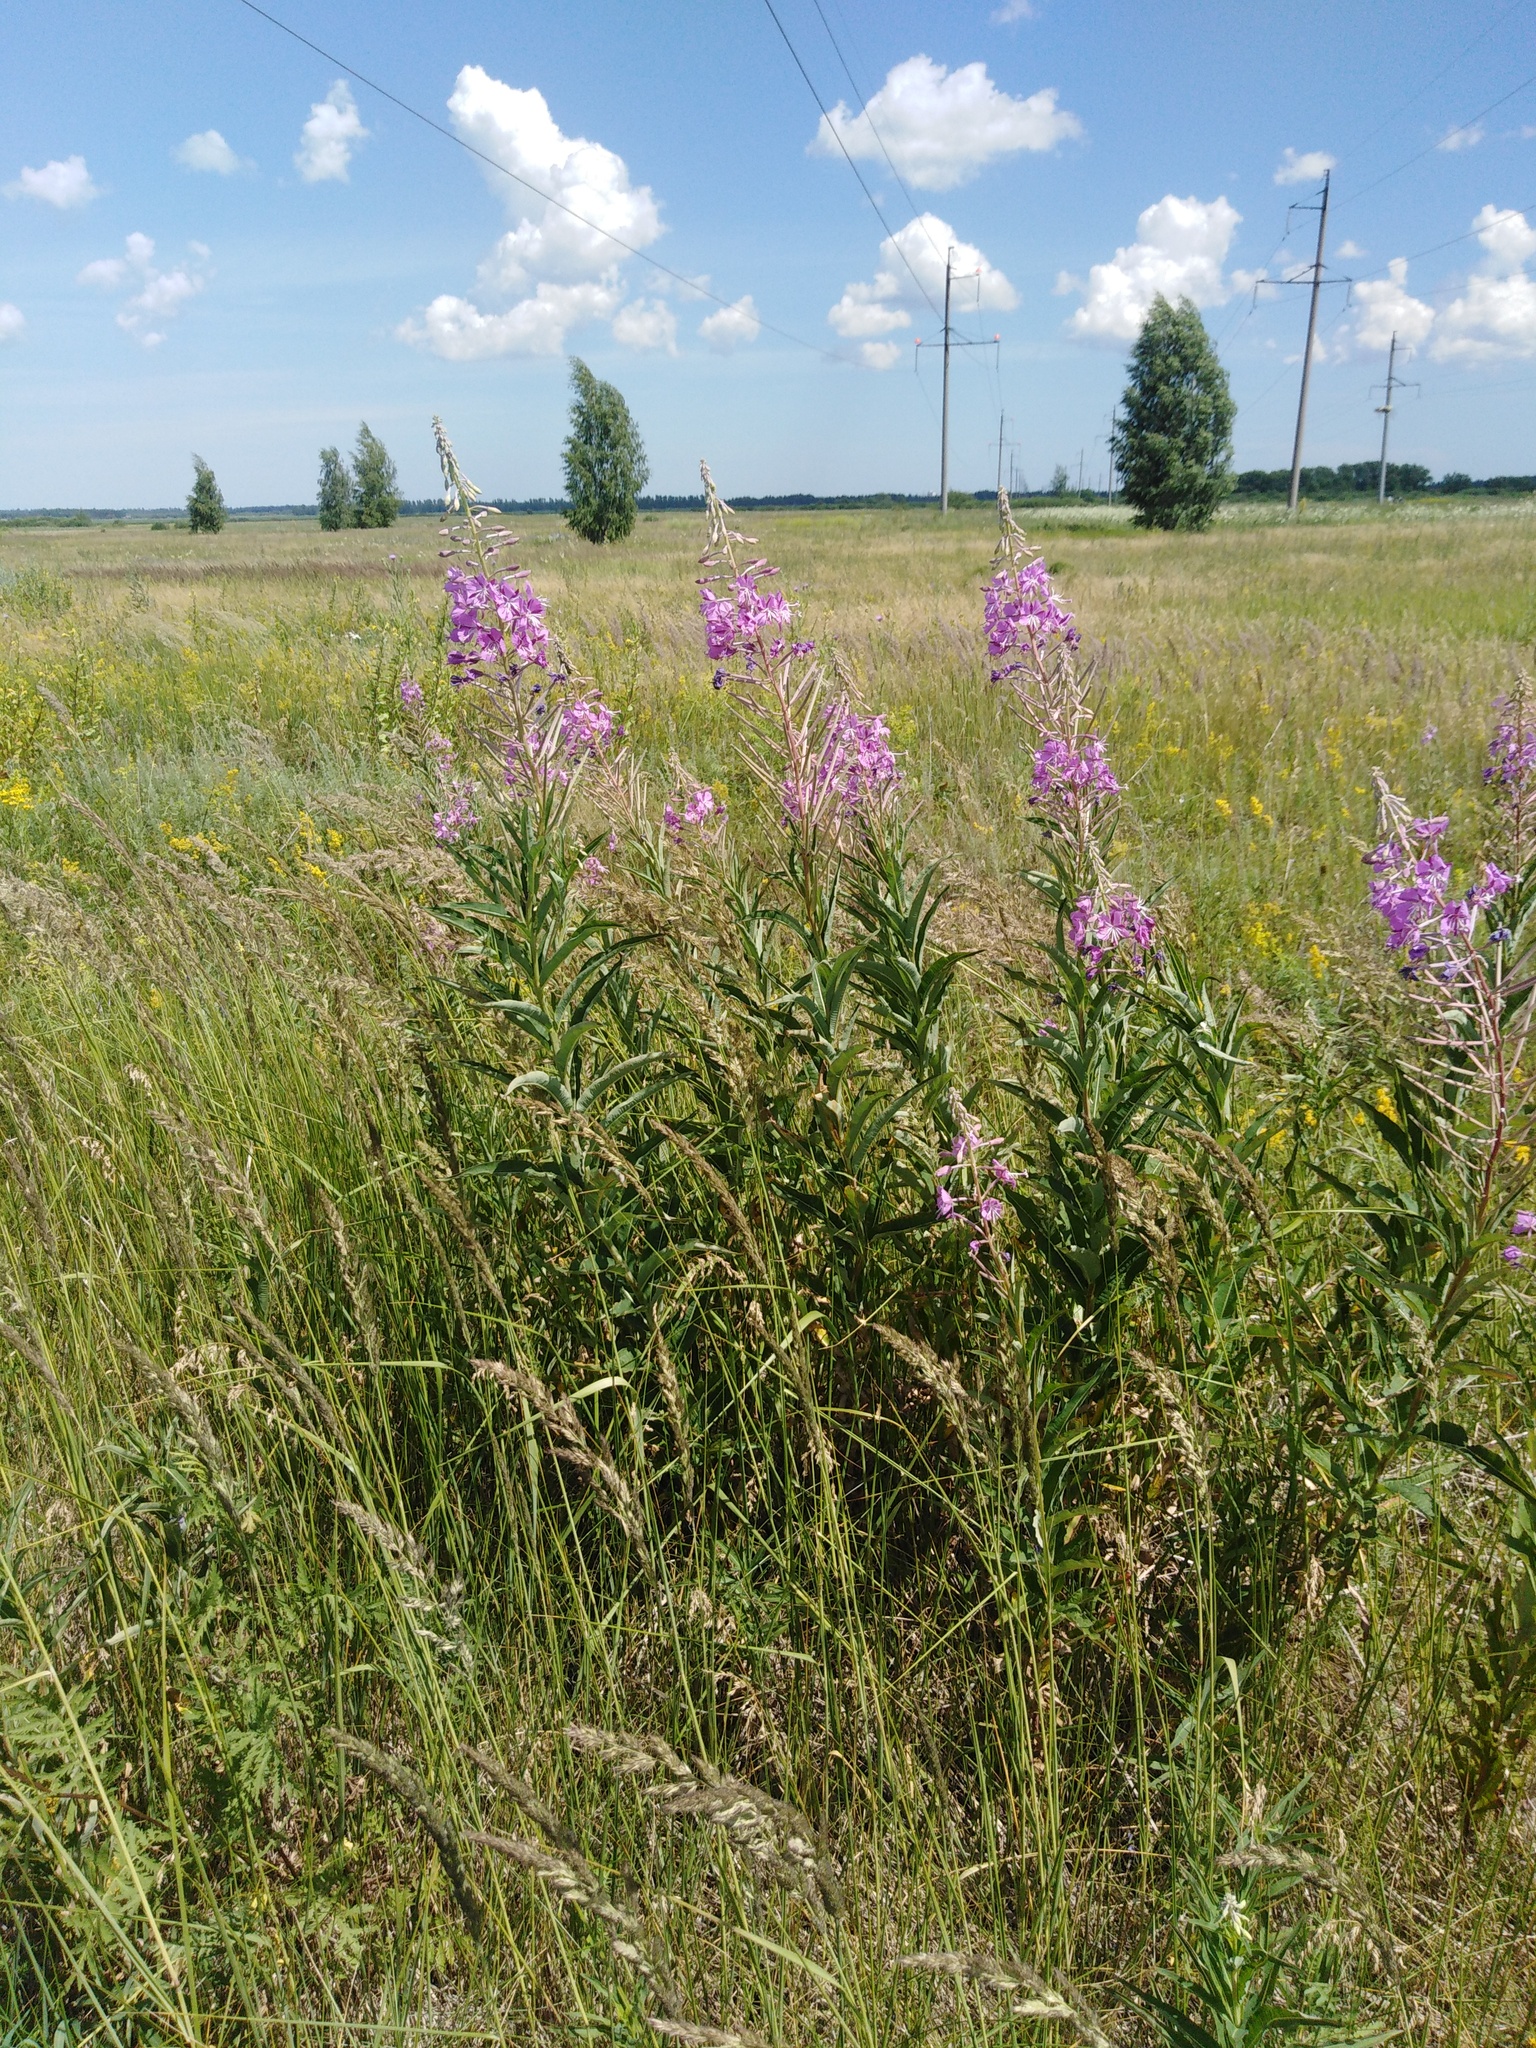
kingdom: Plantae
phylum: Tracheophyta
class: Magnoliopsida
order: Myrtales
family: Onagraceae
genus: Chamaenerion
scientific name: Chamaenerion angustifolium
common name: Fireweed
